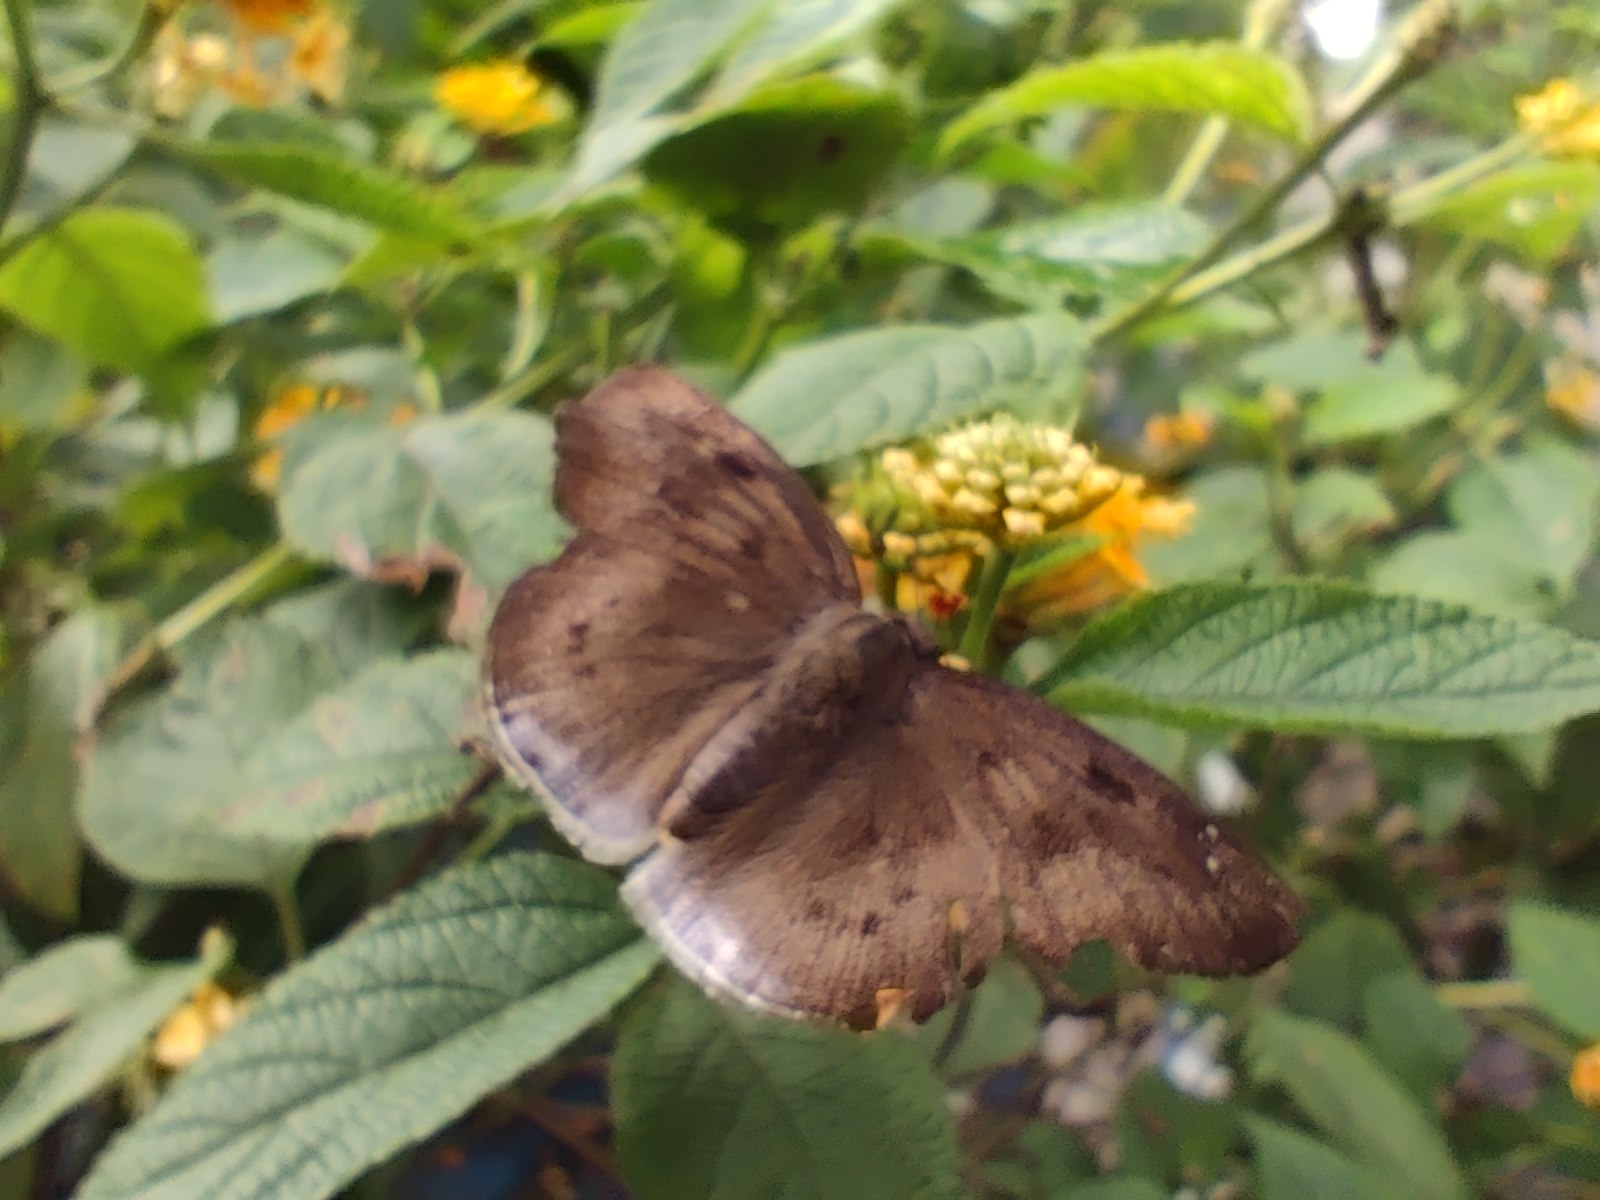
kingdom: Animalia
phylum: Arthropoda
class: Insecta
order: Lepidoptera
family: Hesperiidae
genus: Tagiades
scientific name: Tagiades gana
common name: Suffused snow flat
